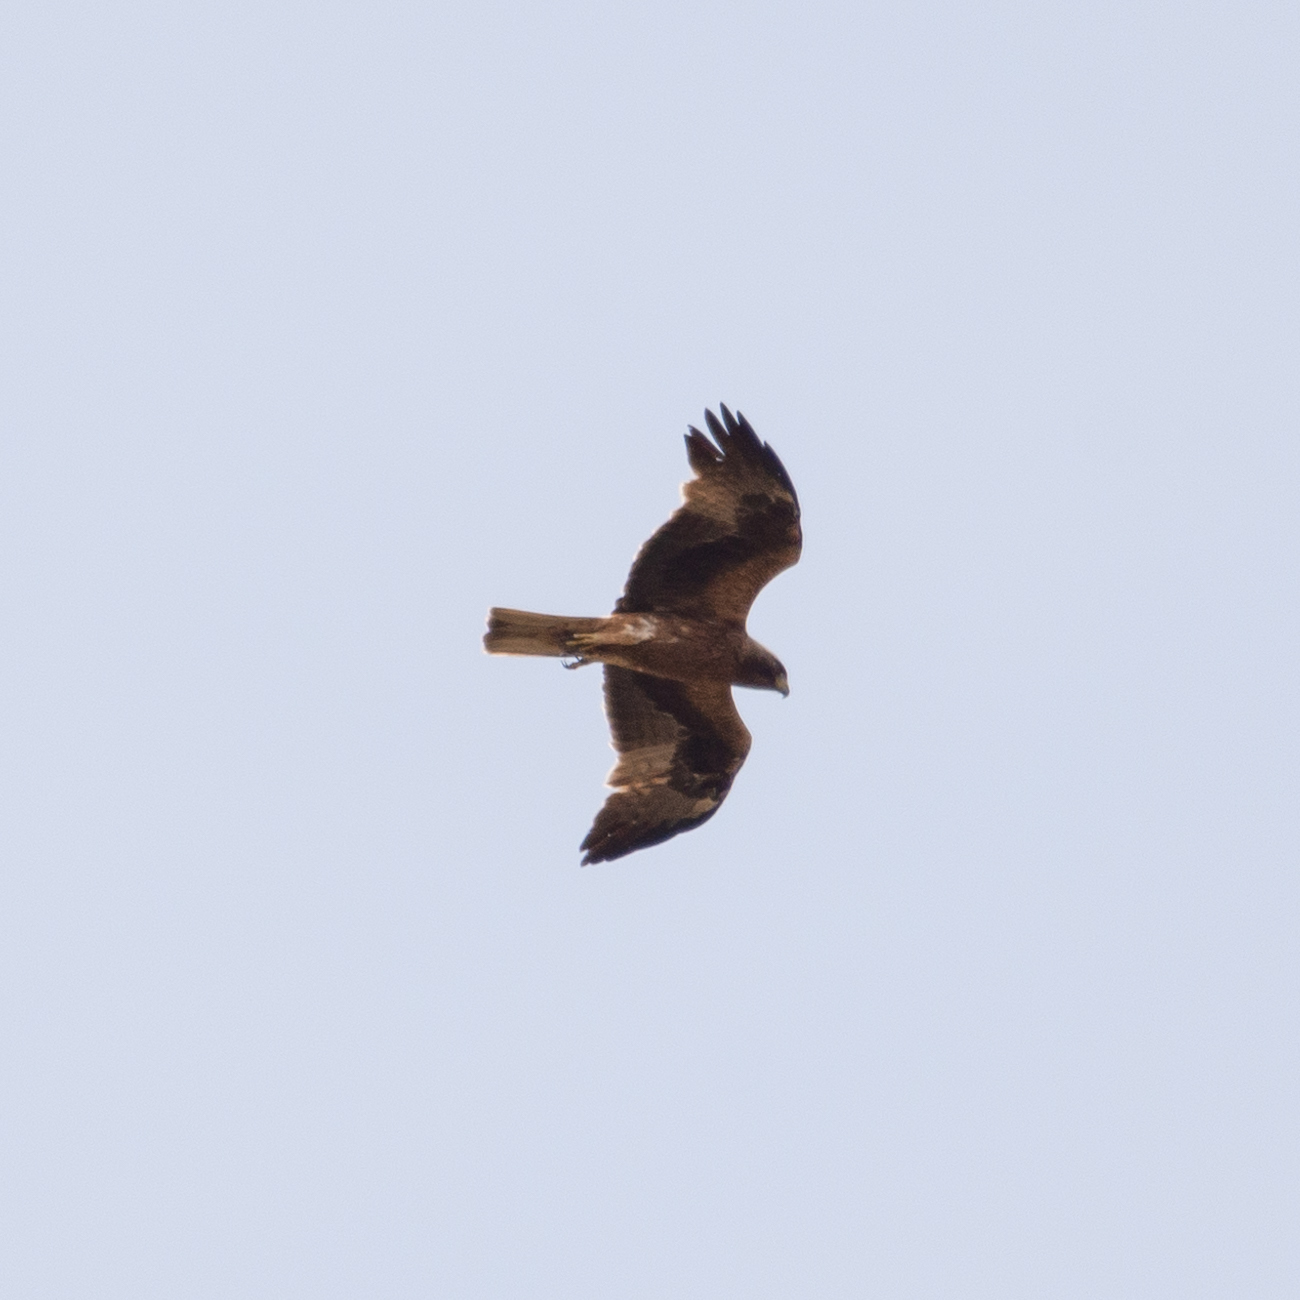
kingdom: Animalia
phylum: Chordata
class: Aves
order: Accipitriformes
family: Accipitridae
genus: Hieraaetus
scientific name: Hieraaetus pennatus
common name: Booted eagle
